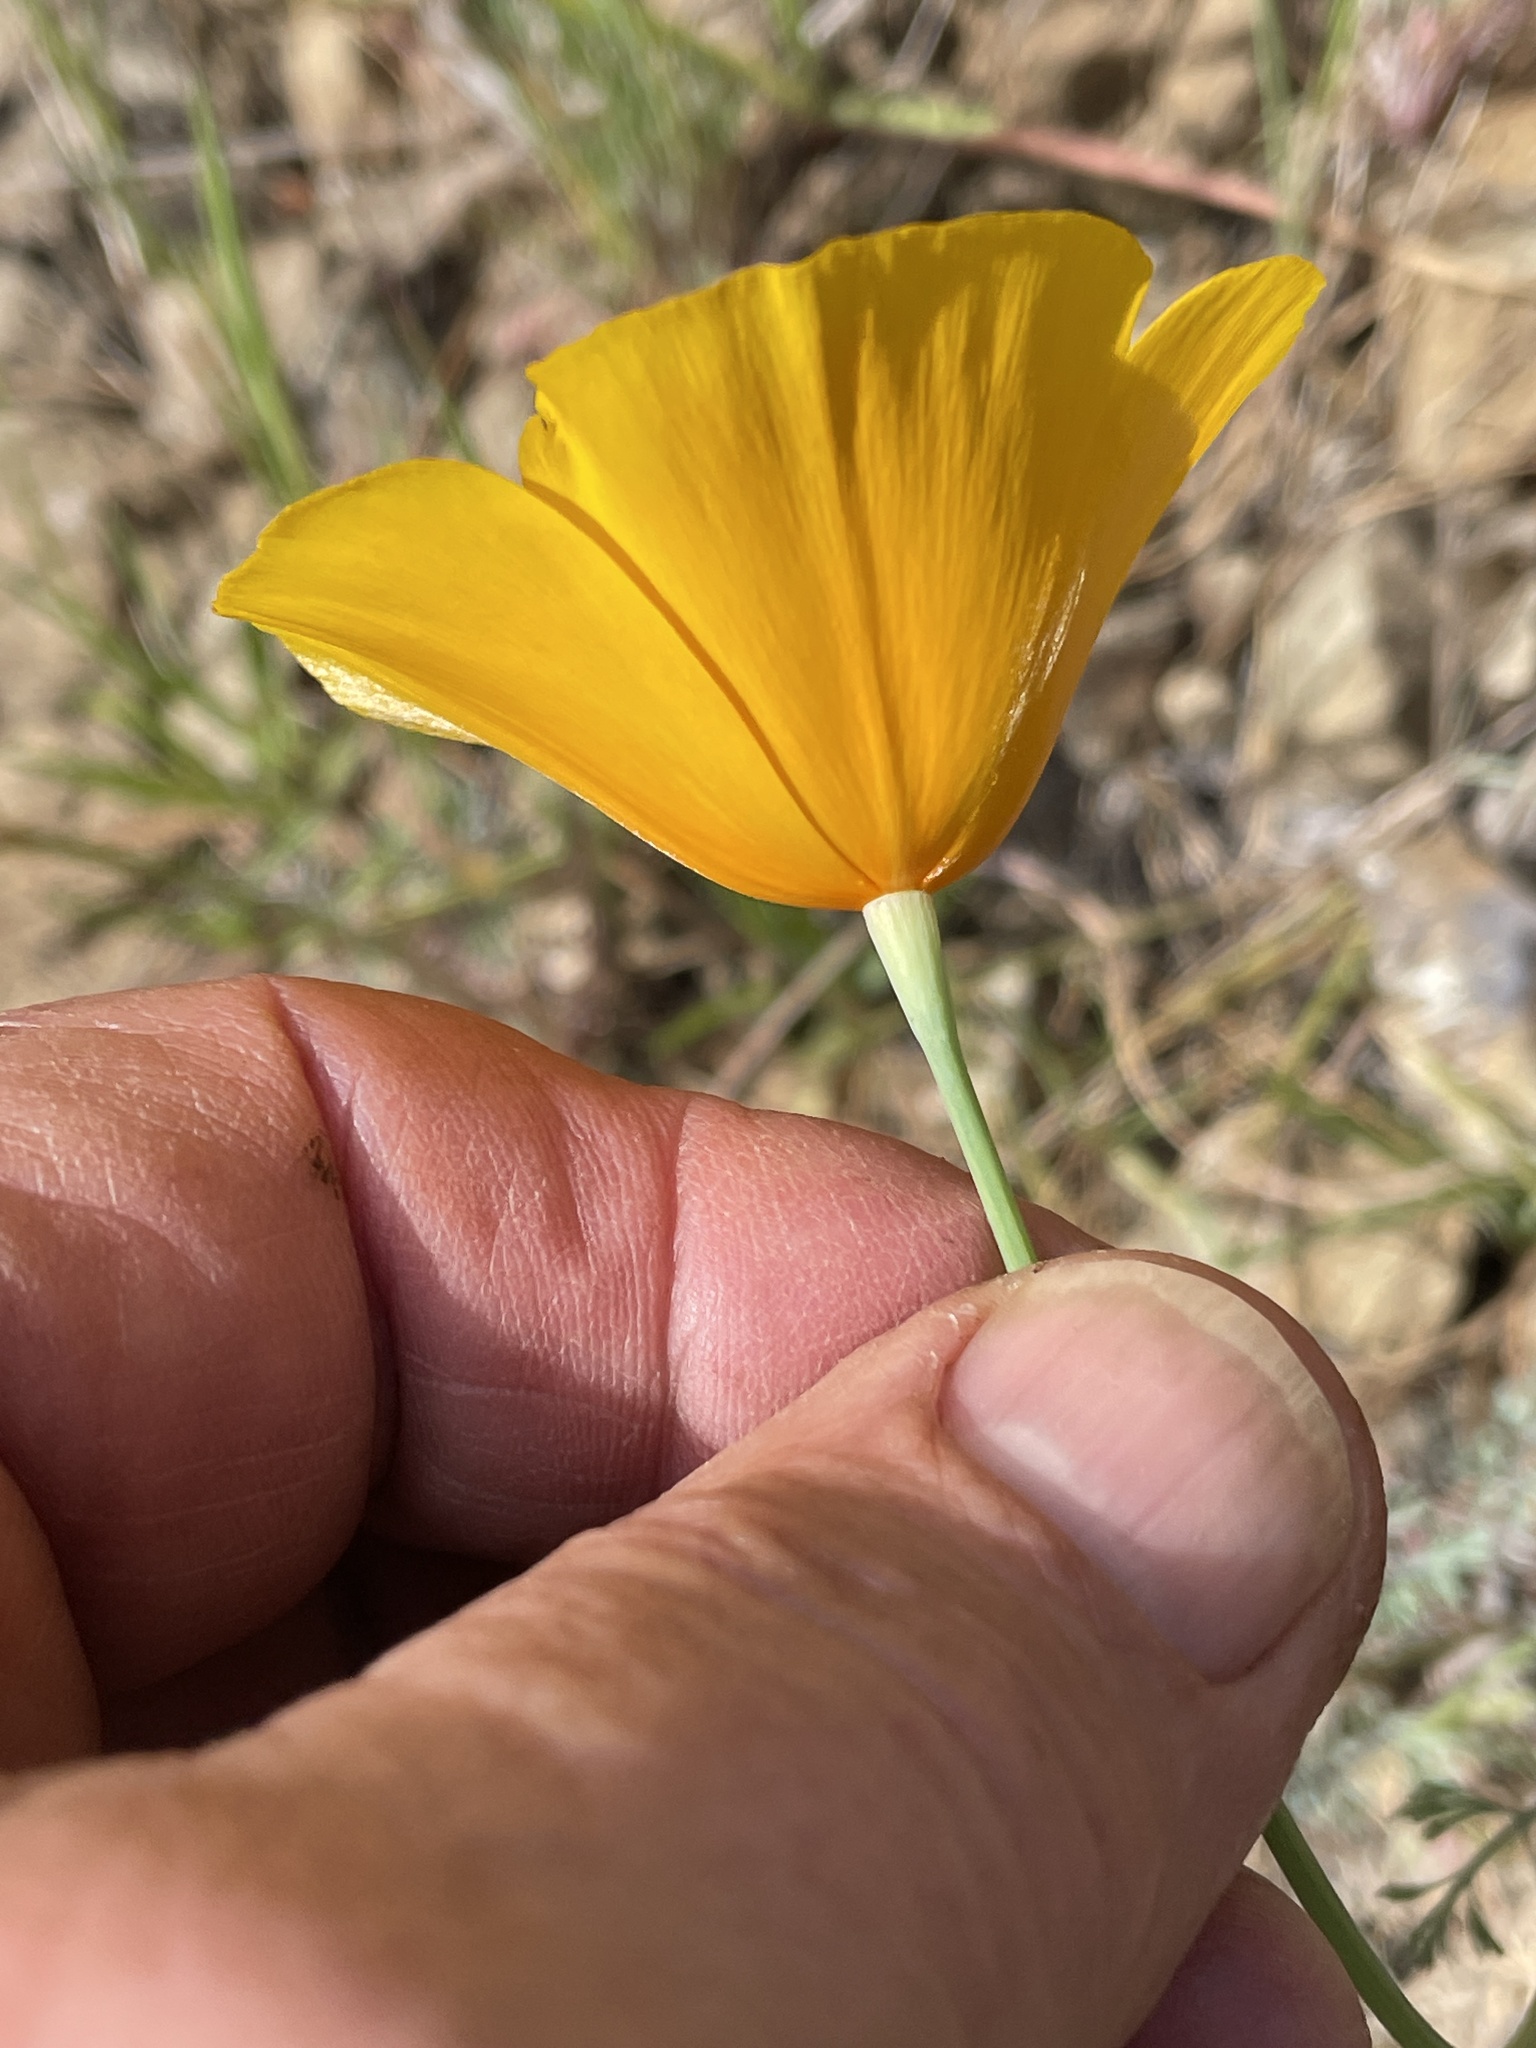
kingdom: Plantae
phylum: Tracheophyta
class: Magnoliopsida
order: Ranunculales
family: Papaveraceae
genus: Eschscholzia
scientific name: Eschscholzia caespitosa
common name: Tufted california-poppy
